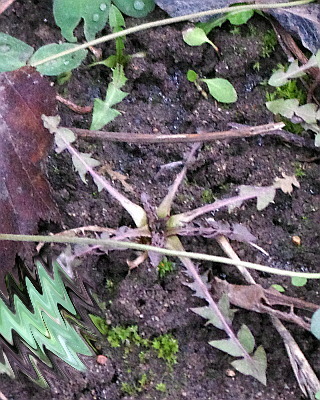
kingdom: Plantae
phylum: Tracheophyta
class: Magnoliopsida
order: Asterales
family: Asteraceae
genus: Taraxacum
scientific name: Taraxacum officinale
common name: Common dandelion
